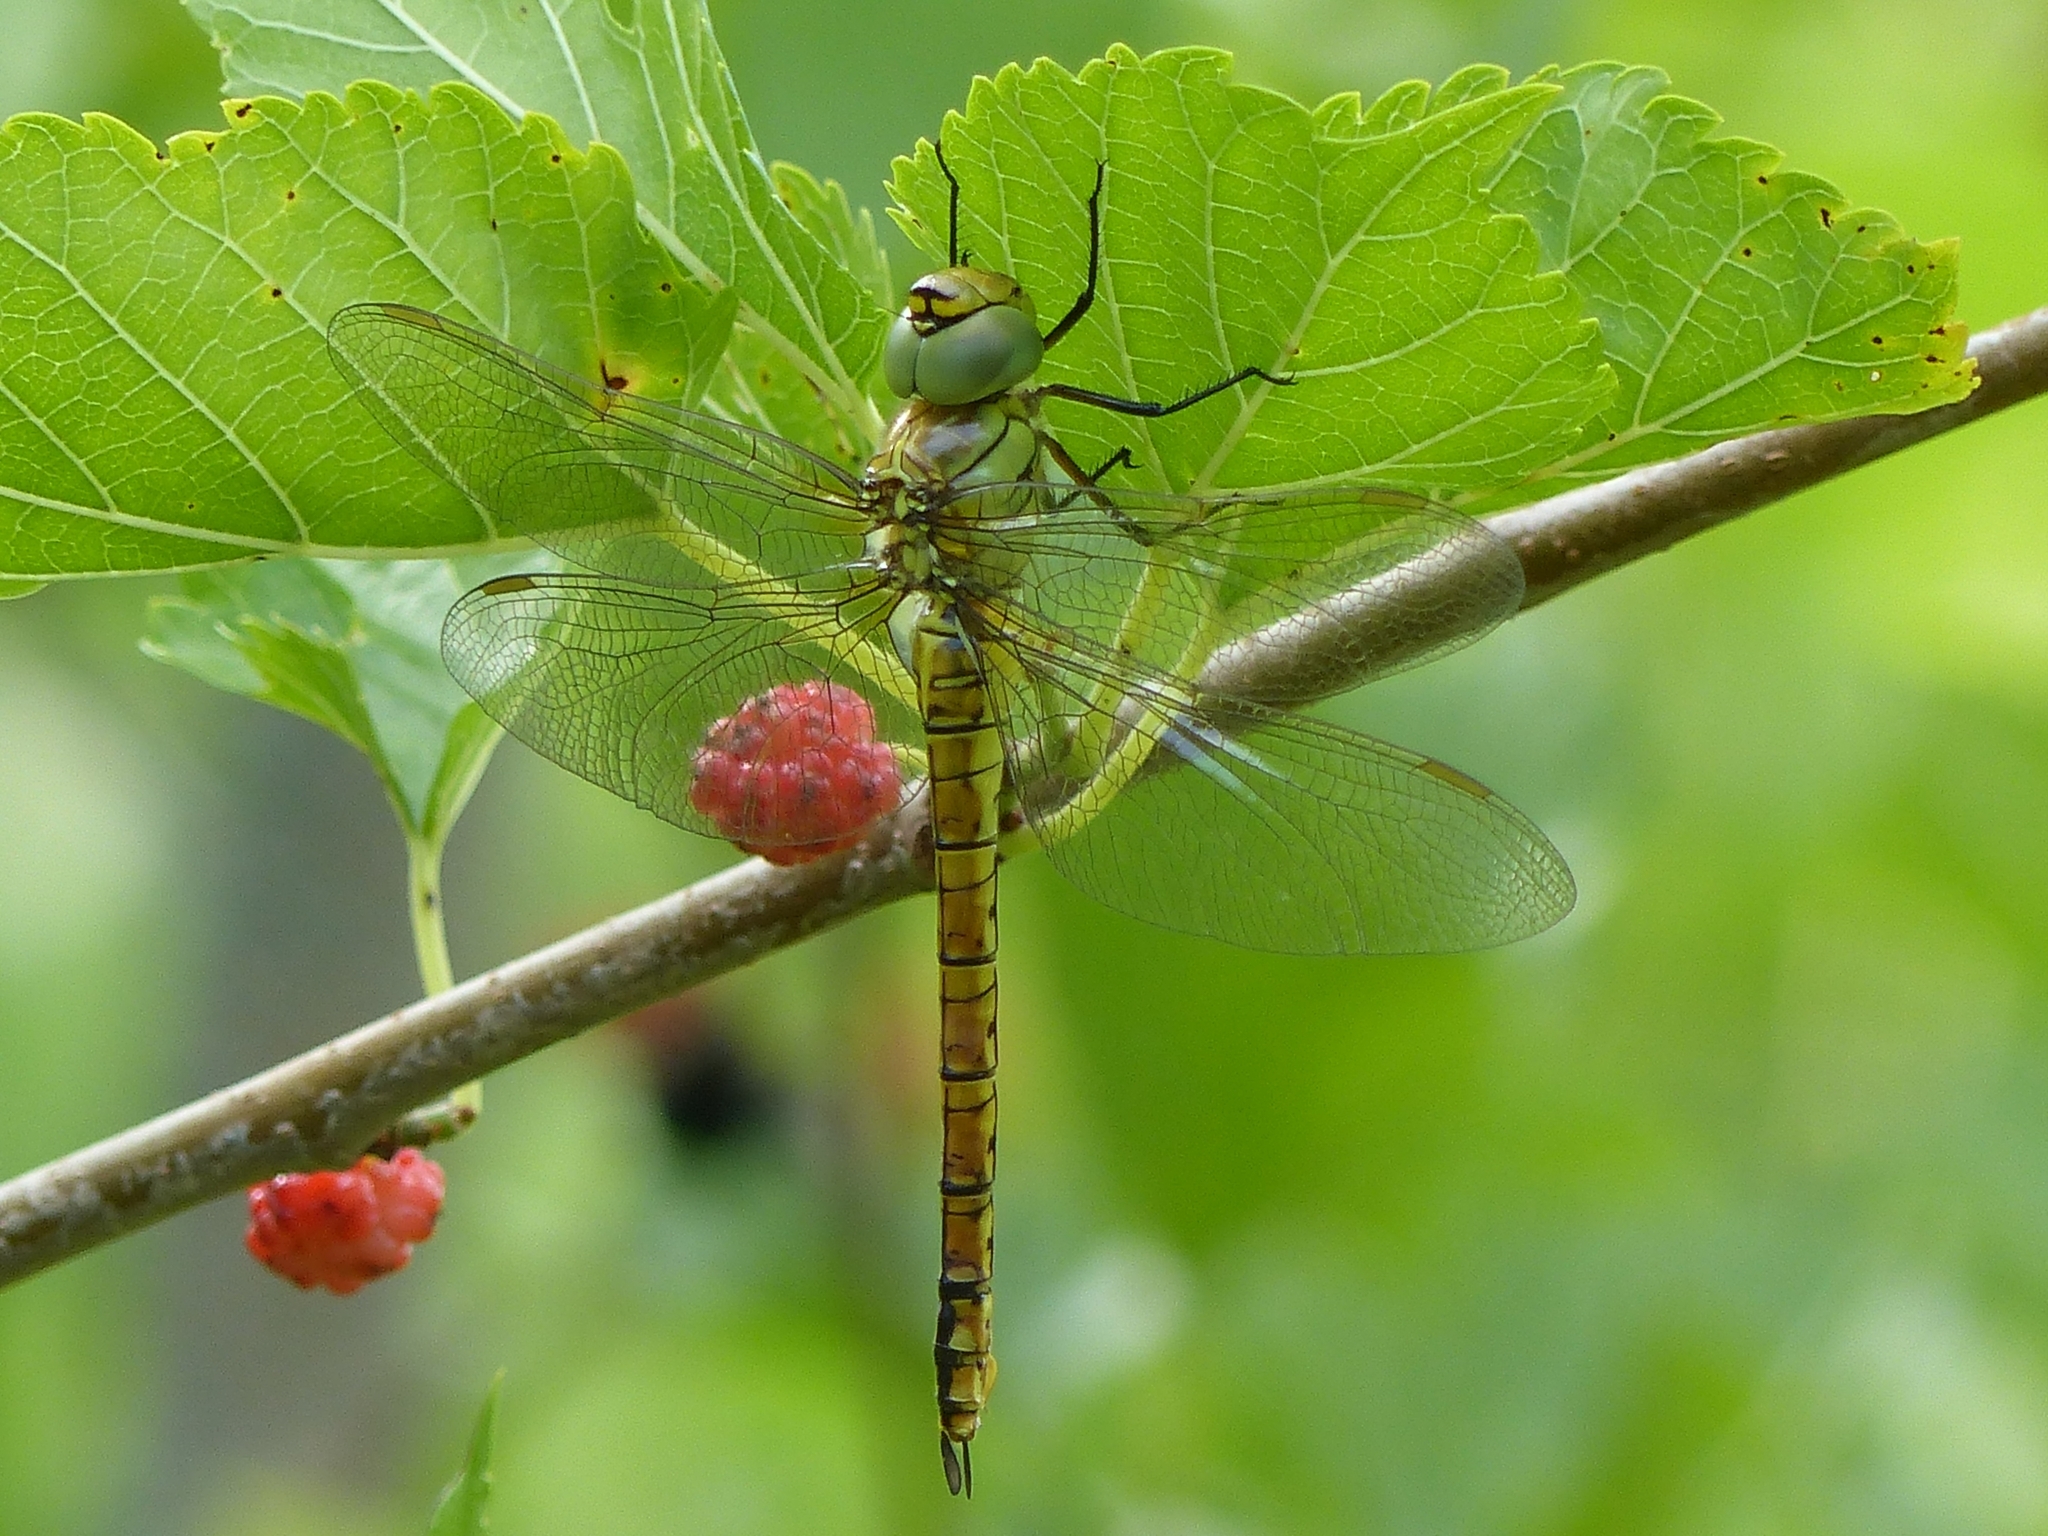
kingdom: Animalia
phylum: Arthropoda
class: Insecta
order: Odonata
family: Aeshnidae
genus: Aeshna
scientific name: Aeshna affinis
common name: Southern migrant hawker
